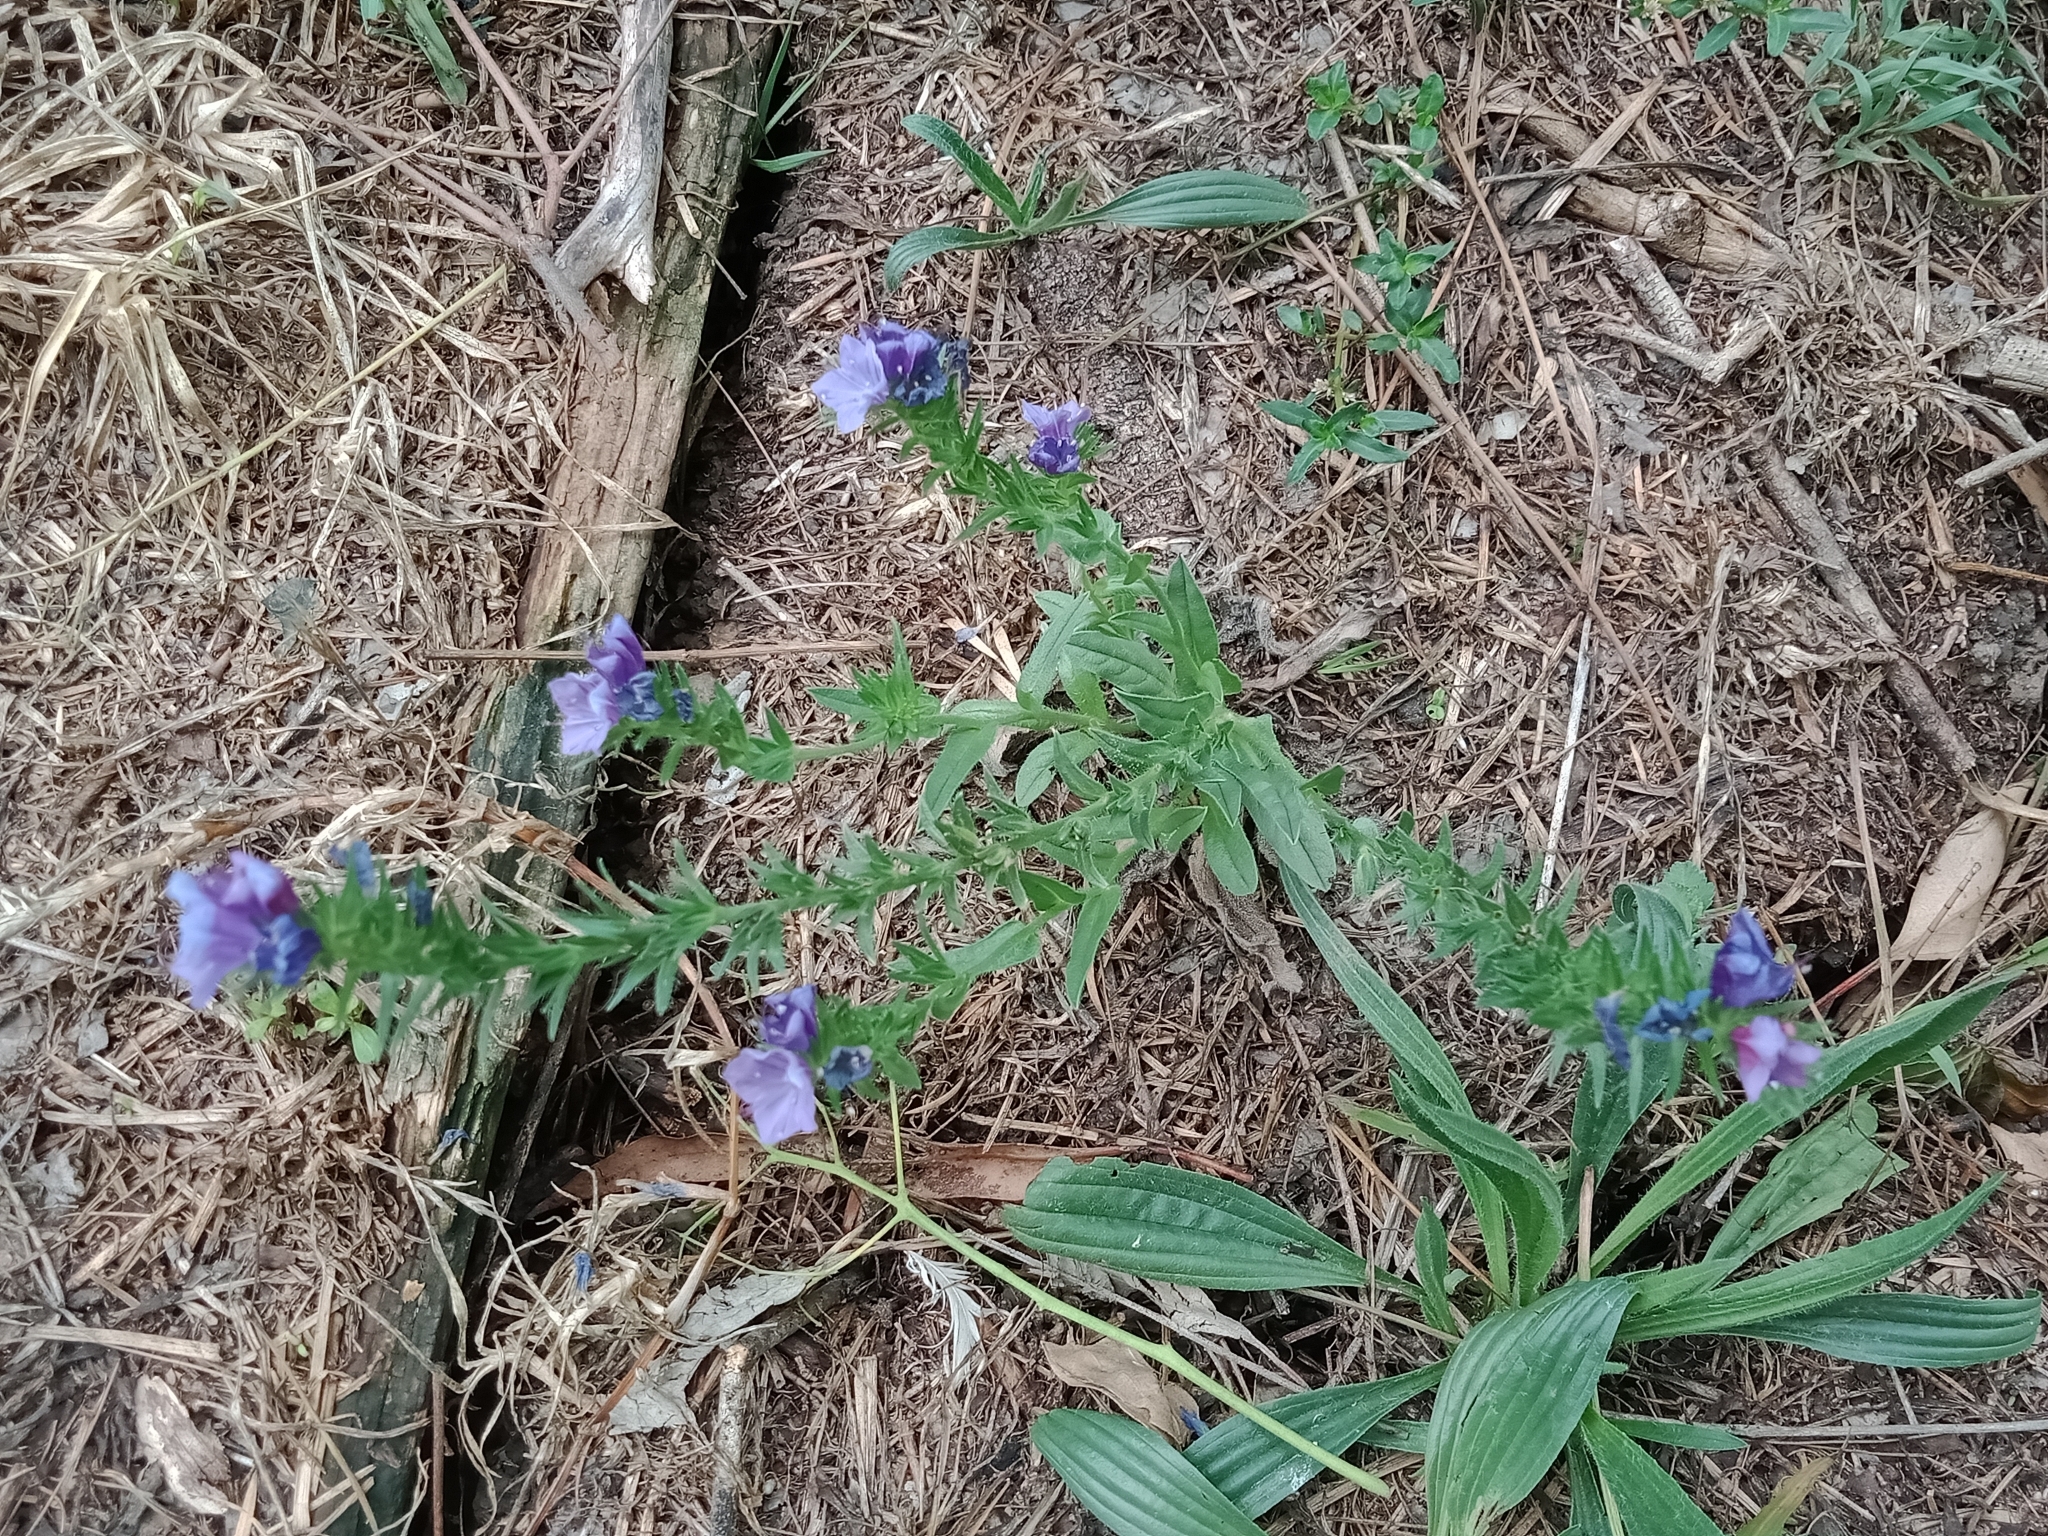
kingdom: Plantae
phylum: Tracheophyta
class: Magnoliopsida
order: Boraginales
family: Boraginaceae
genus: Echium
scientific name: Echium plantagineum
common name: Purple viper's-bugloss
